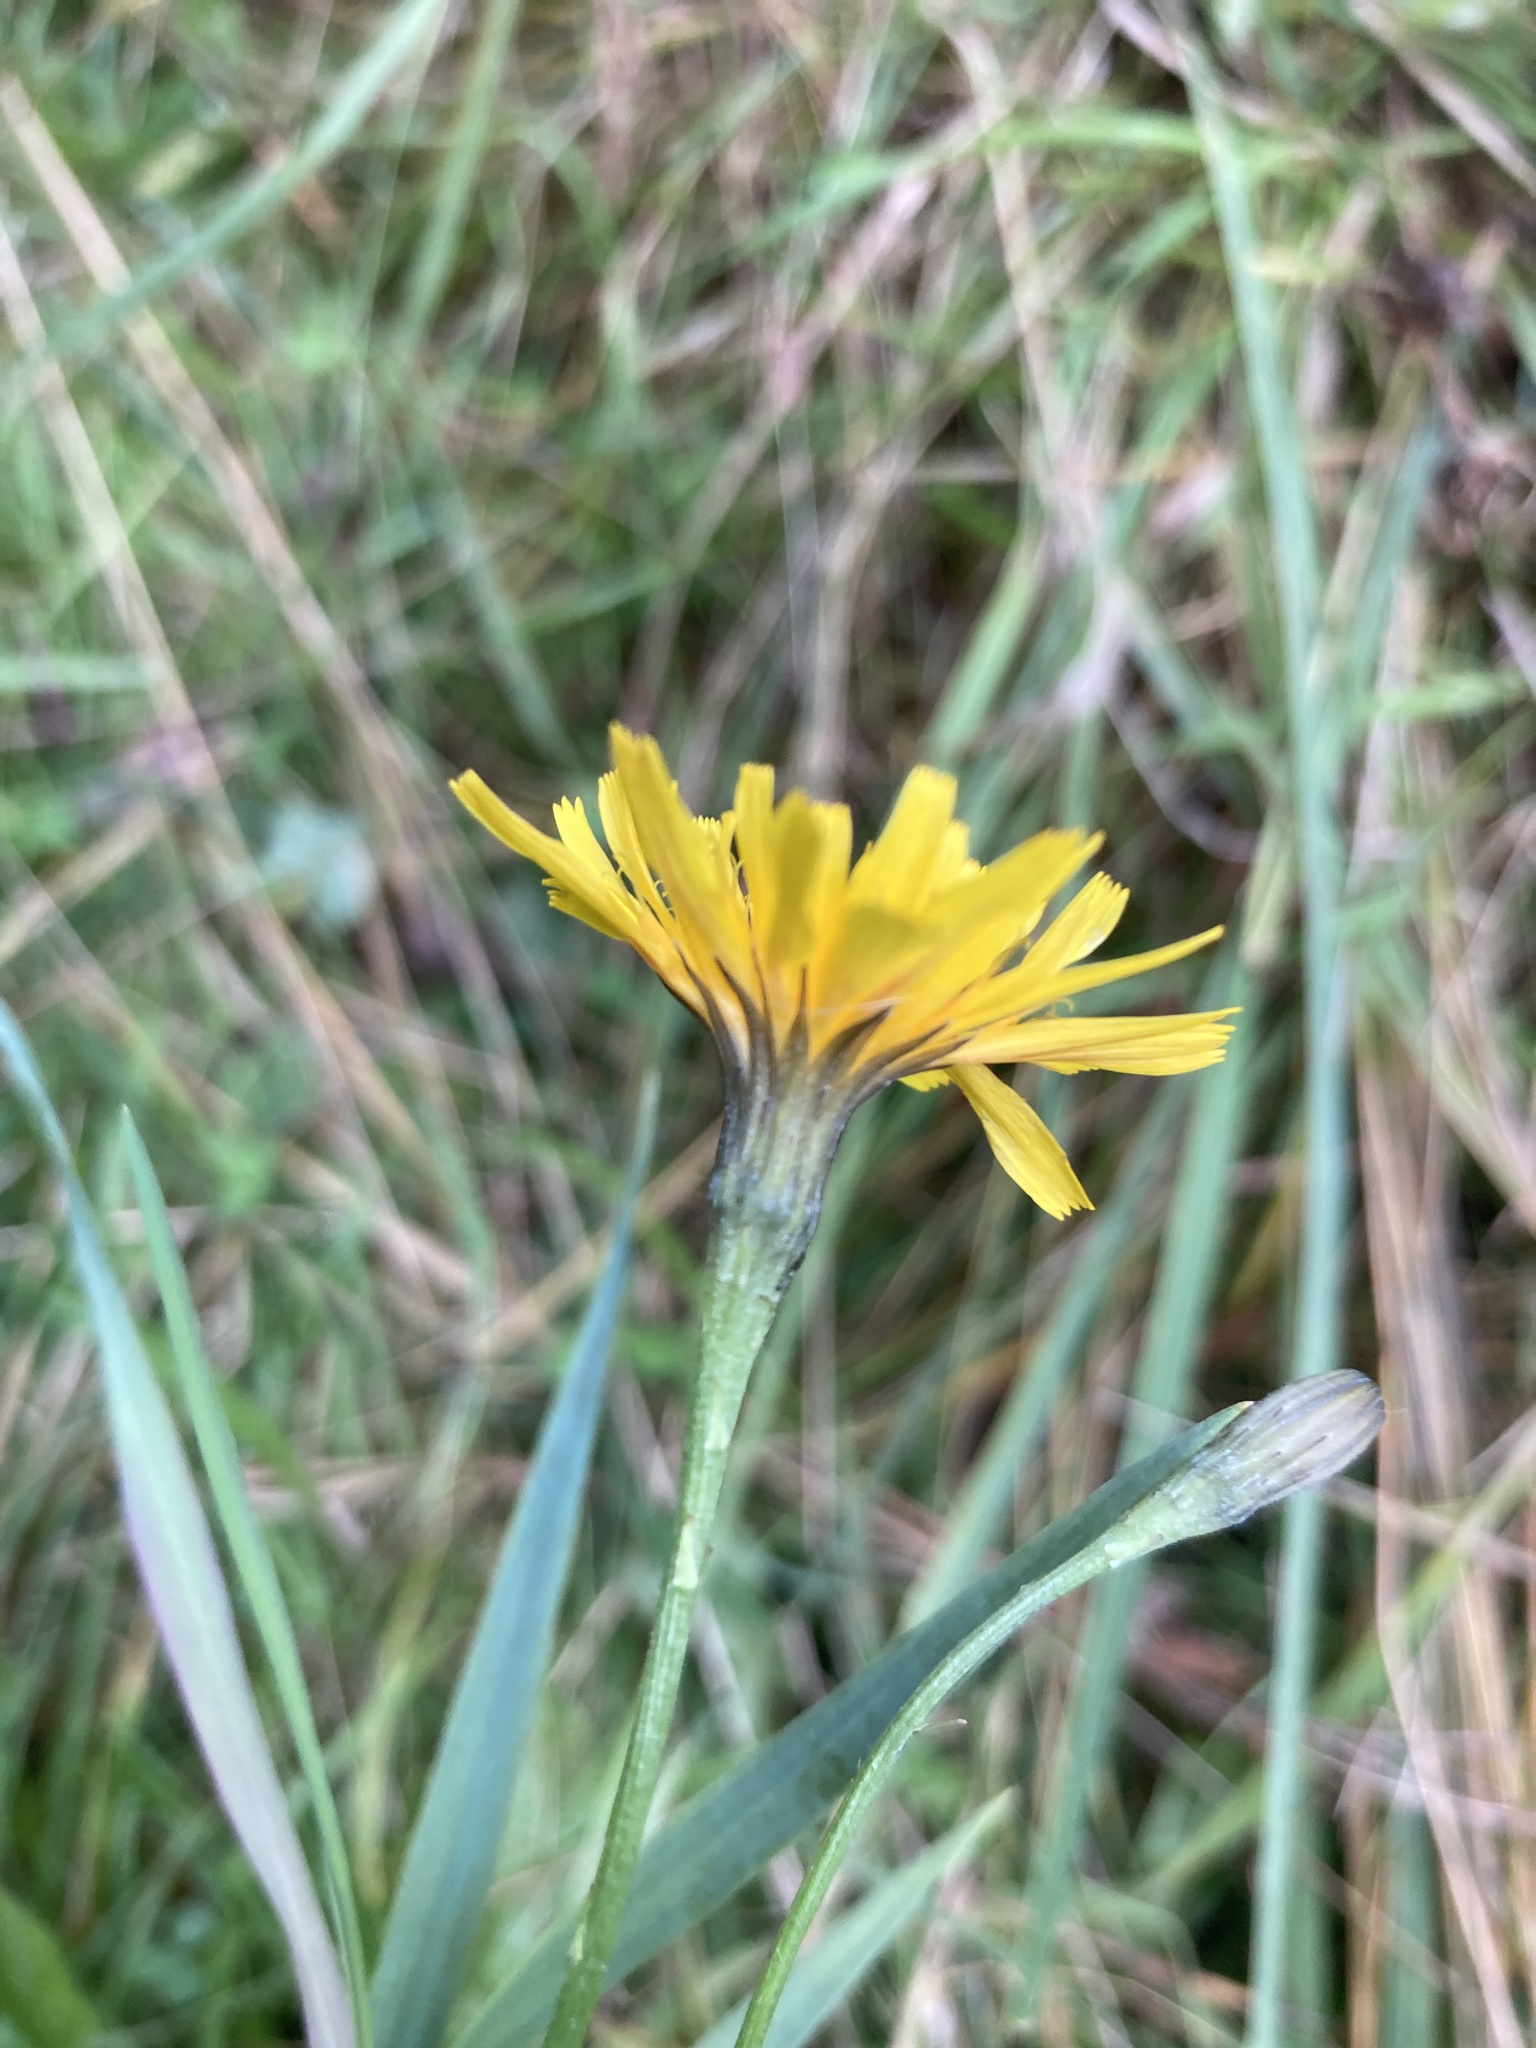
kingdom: Plantae
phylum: Tracheophyta
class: Magnoliopsida
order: Asterales
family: Asteraceae
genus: Scorzoneroides
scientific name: Scorzoneroides autumnalis
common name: Autumn hawkbit
